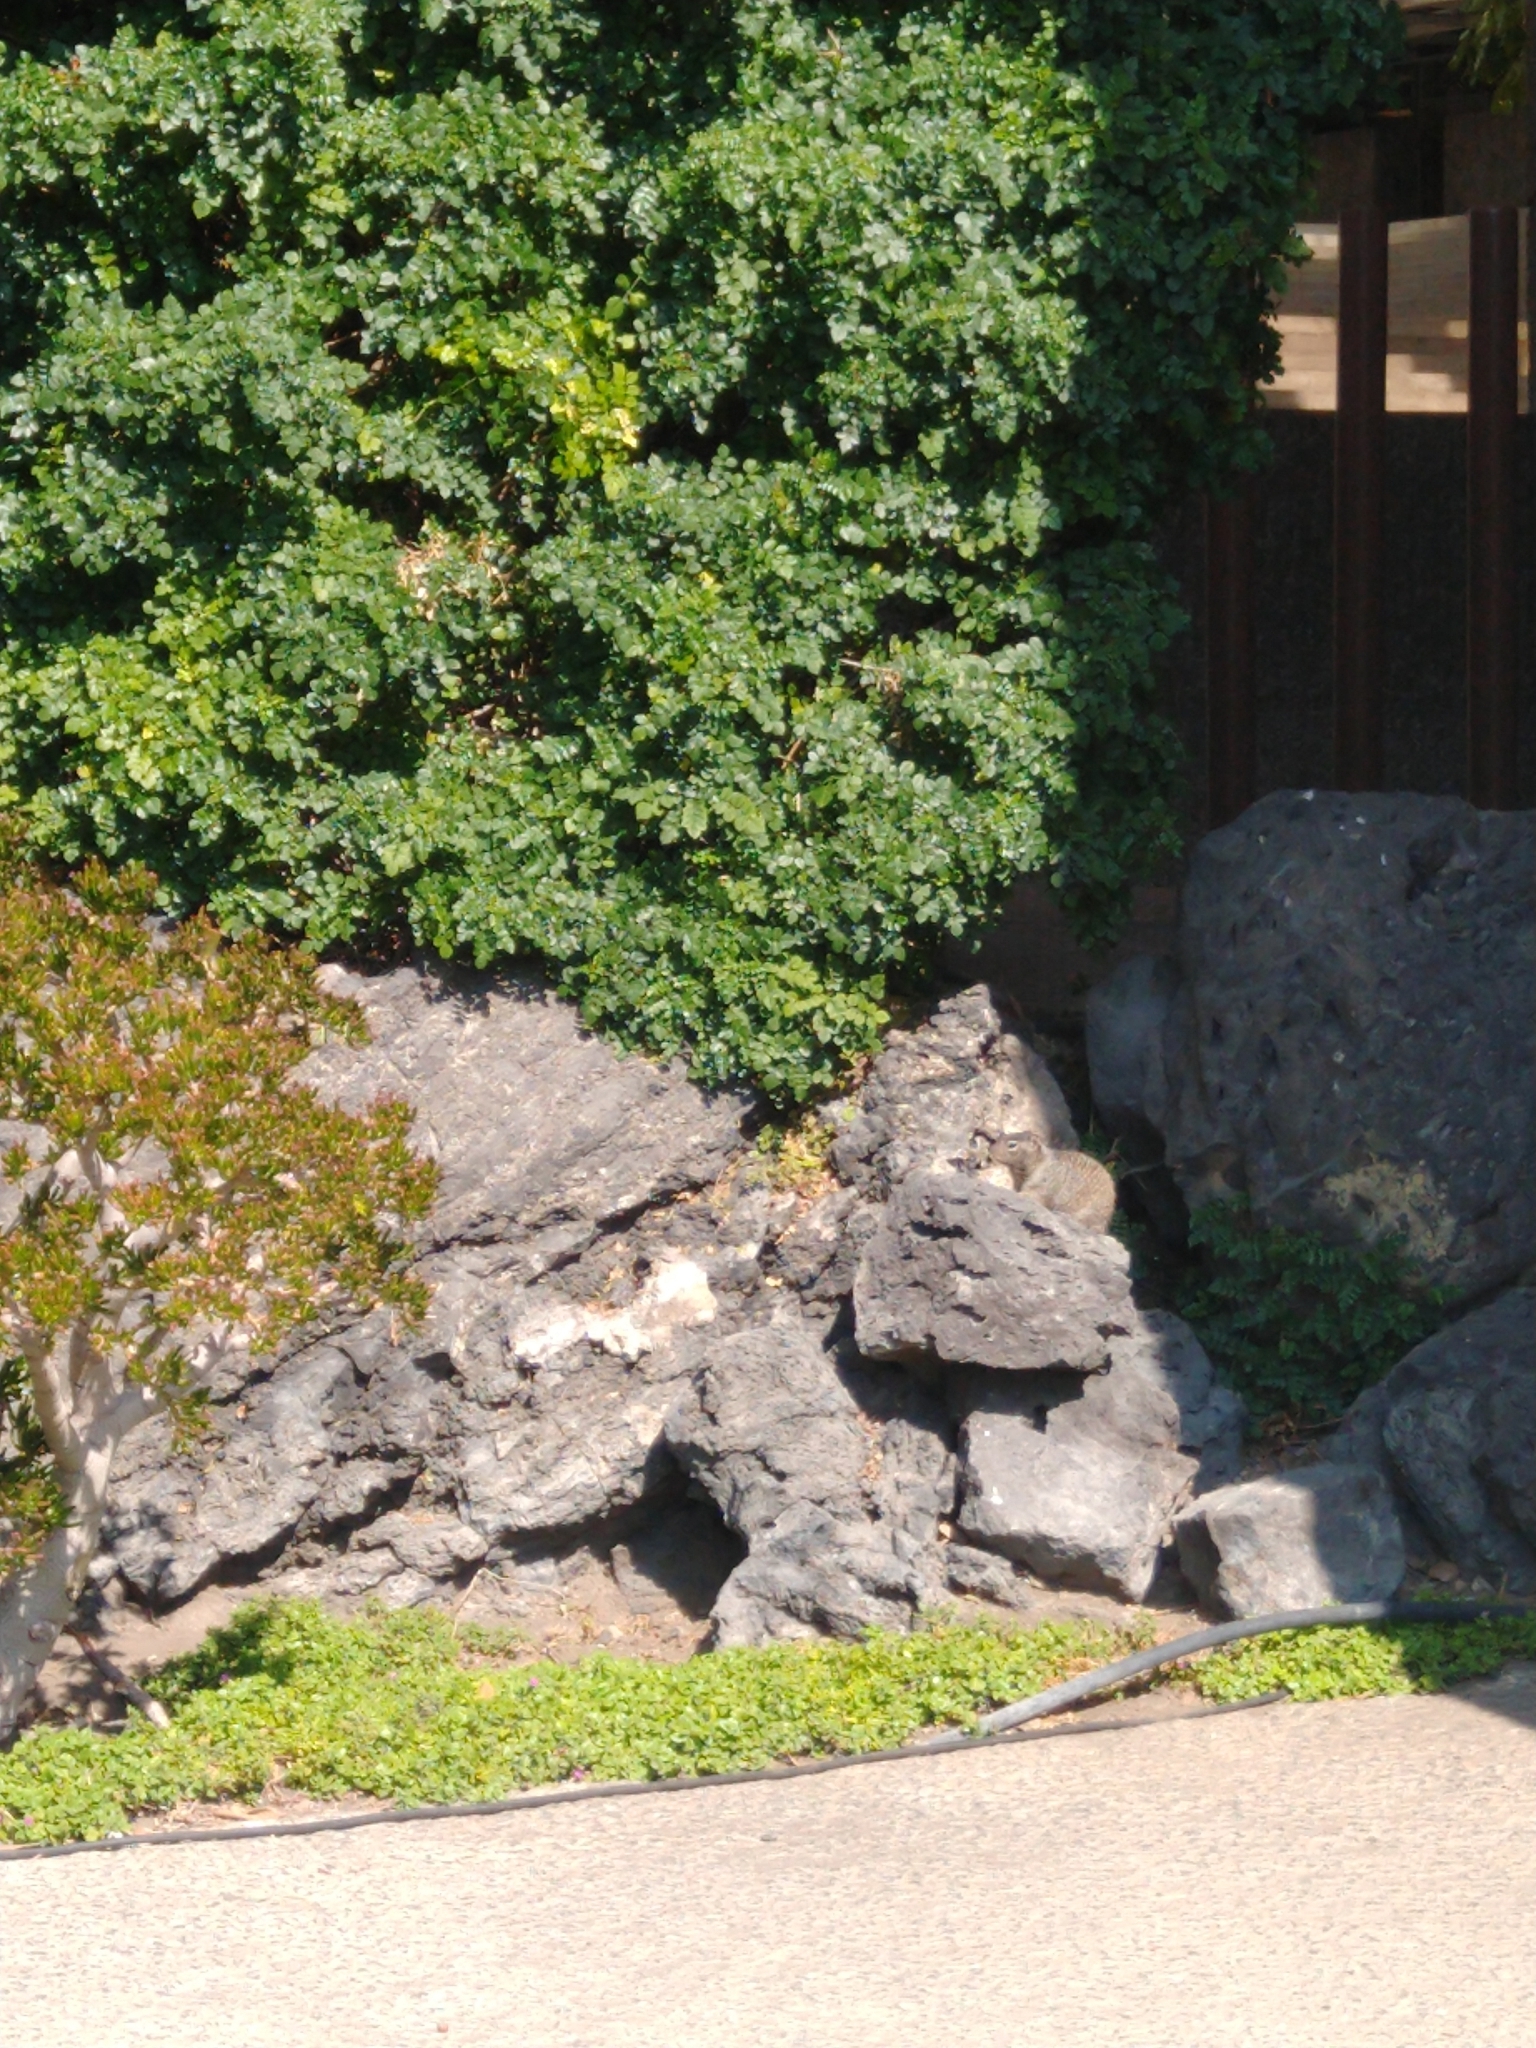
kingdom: Animalia
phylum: Chordata
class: Mammalia
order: Rodentia
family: Sciuridae
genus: Otospermophilus
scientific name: Otospermophilus variegatus
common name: Rock squirrel
